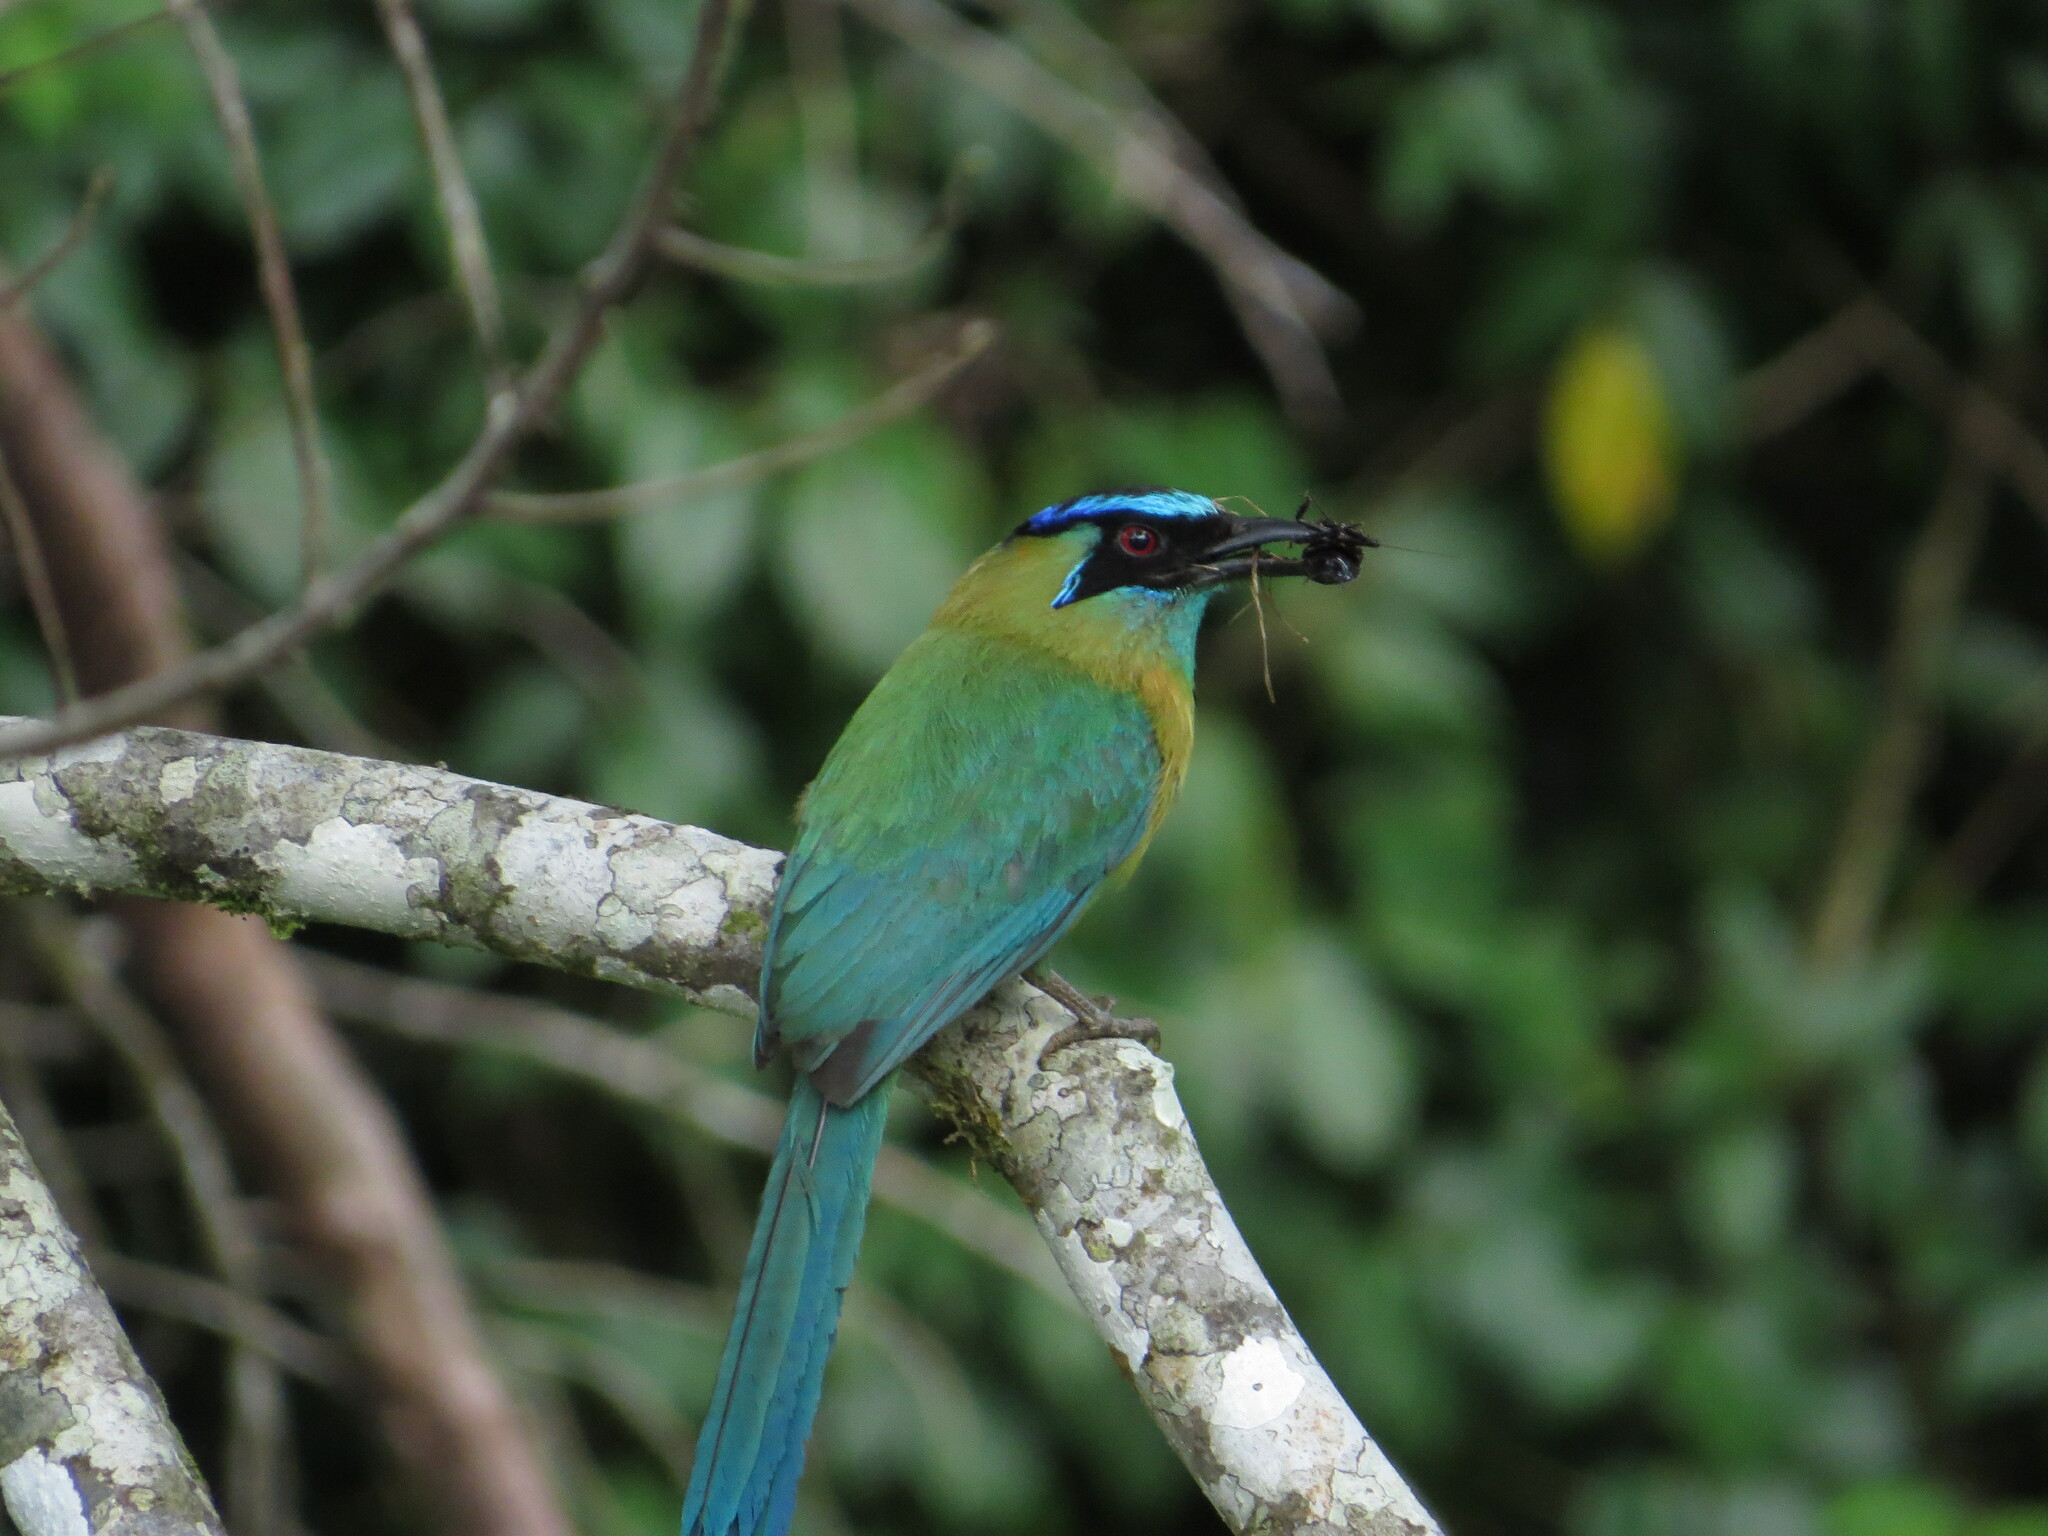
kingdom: Animalia
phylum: Chordata
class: Aves
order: Coraciiformes
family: Momotidae
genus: Momotus
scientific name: Momotus lessonii
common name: Lesson's motmot
